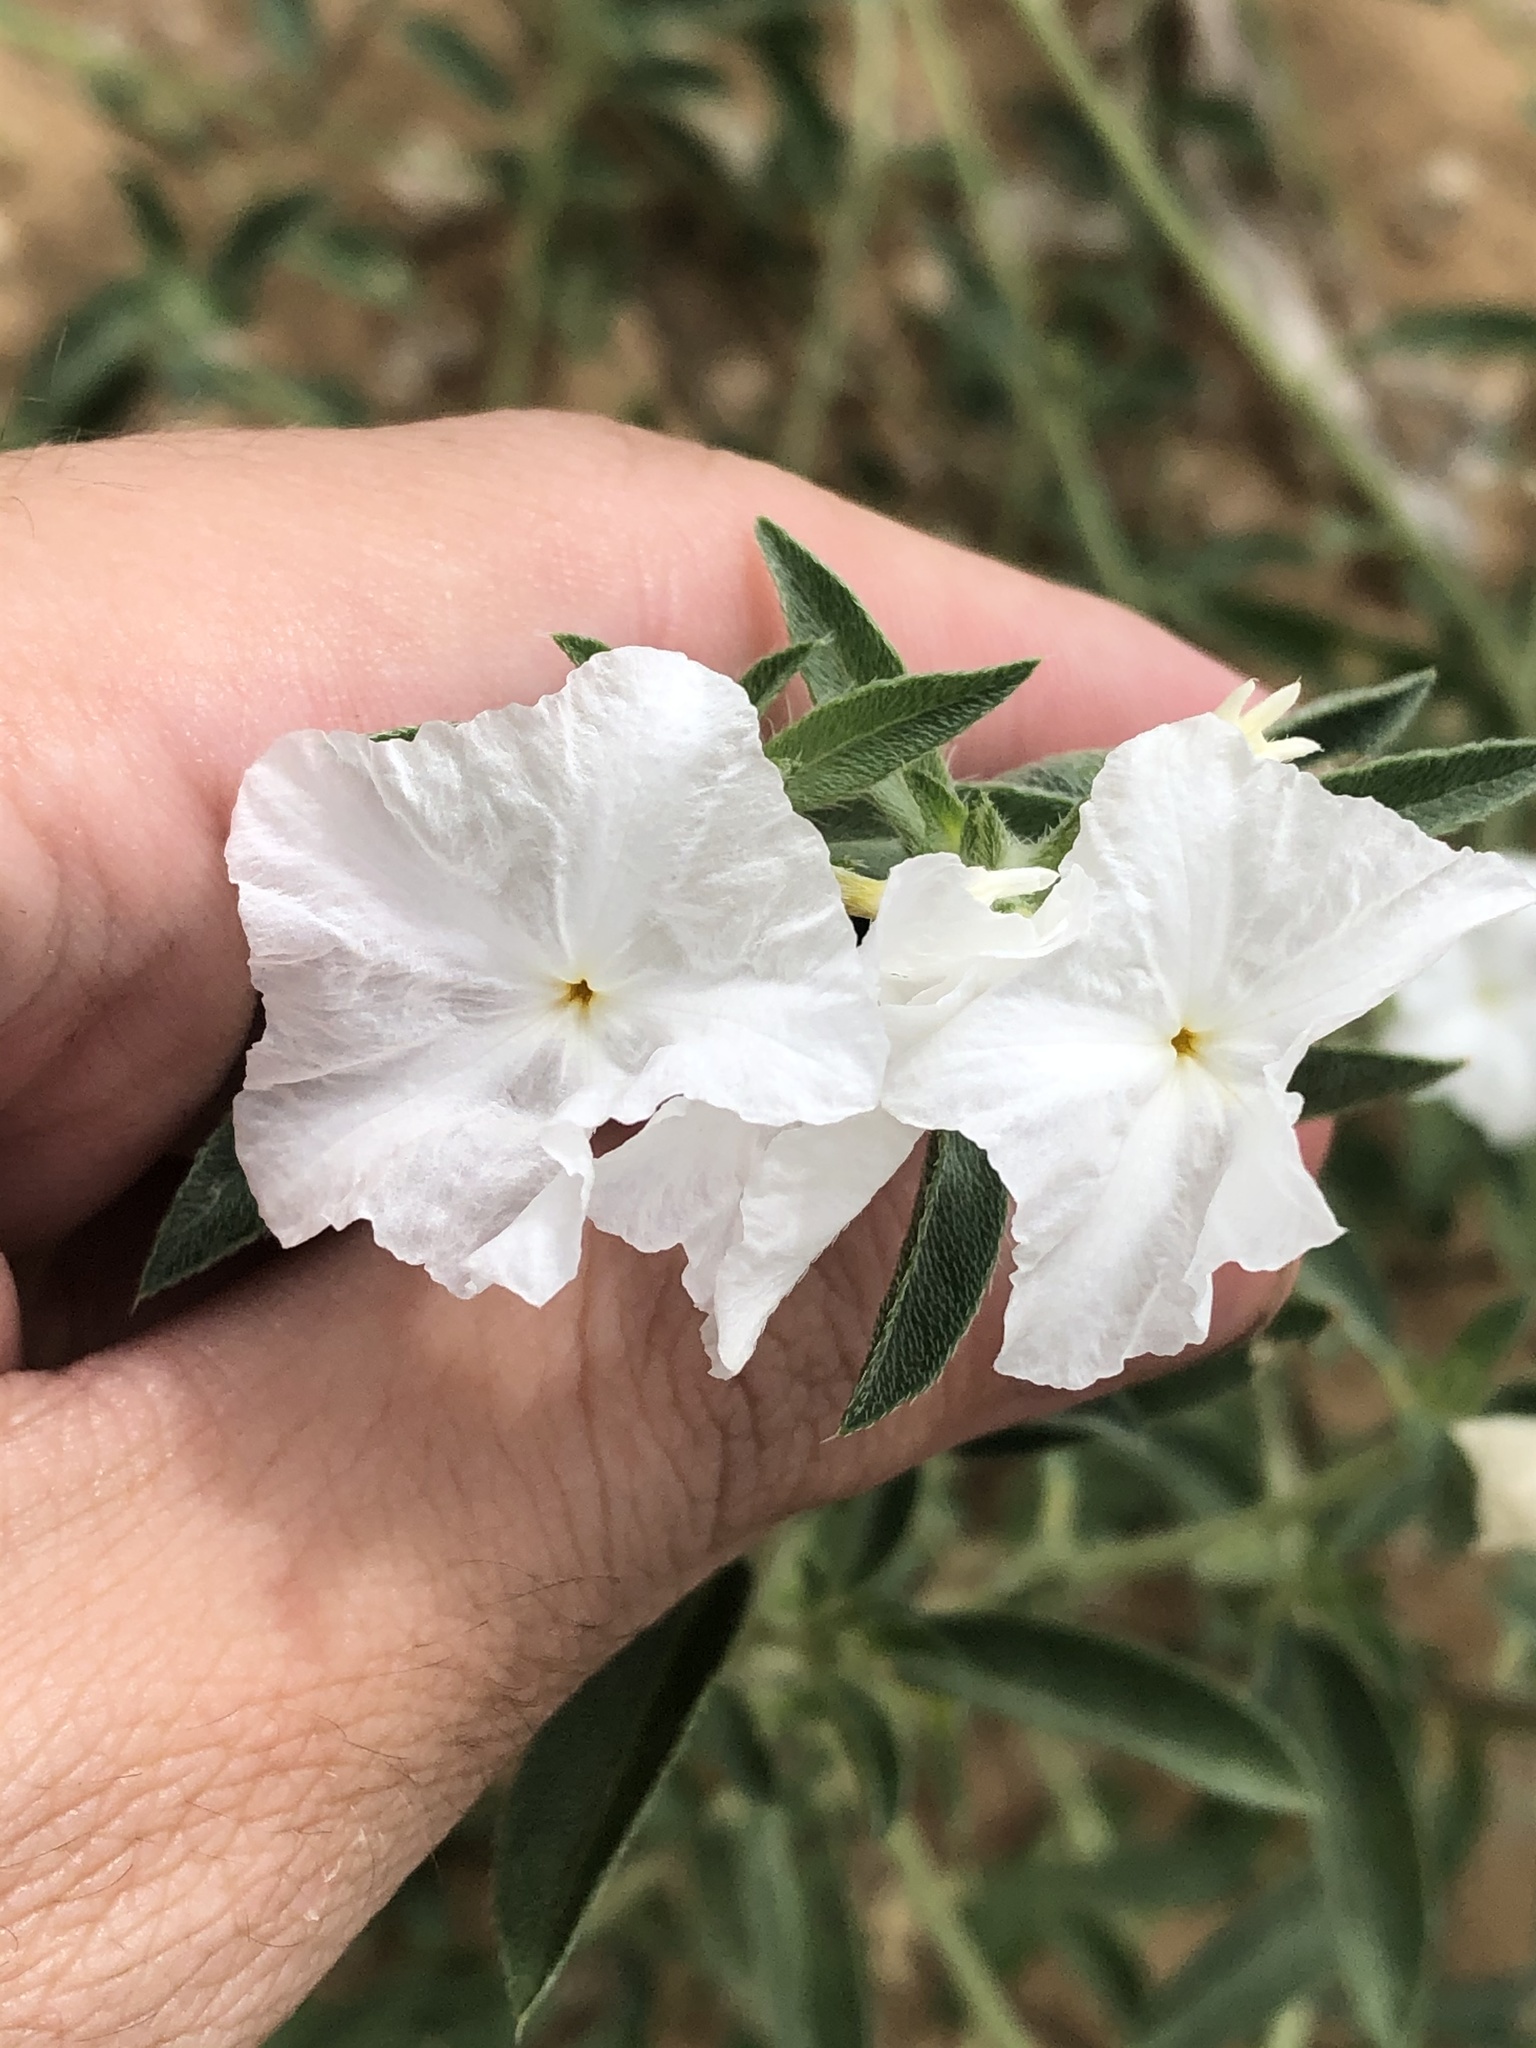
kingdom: Plantae
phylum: Tracheophyta
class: Magnoliopsida
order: Boraginales
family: Heliotropiaceae
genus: Euploca
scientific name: Euploca convolvulacea
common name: Bindweed heliotrope
